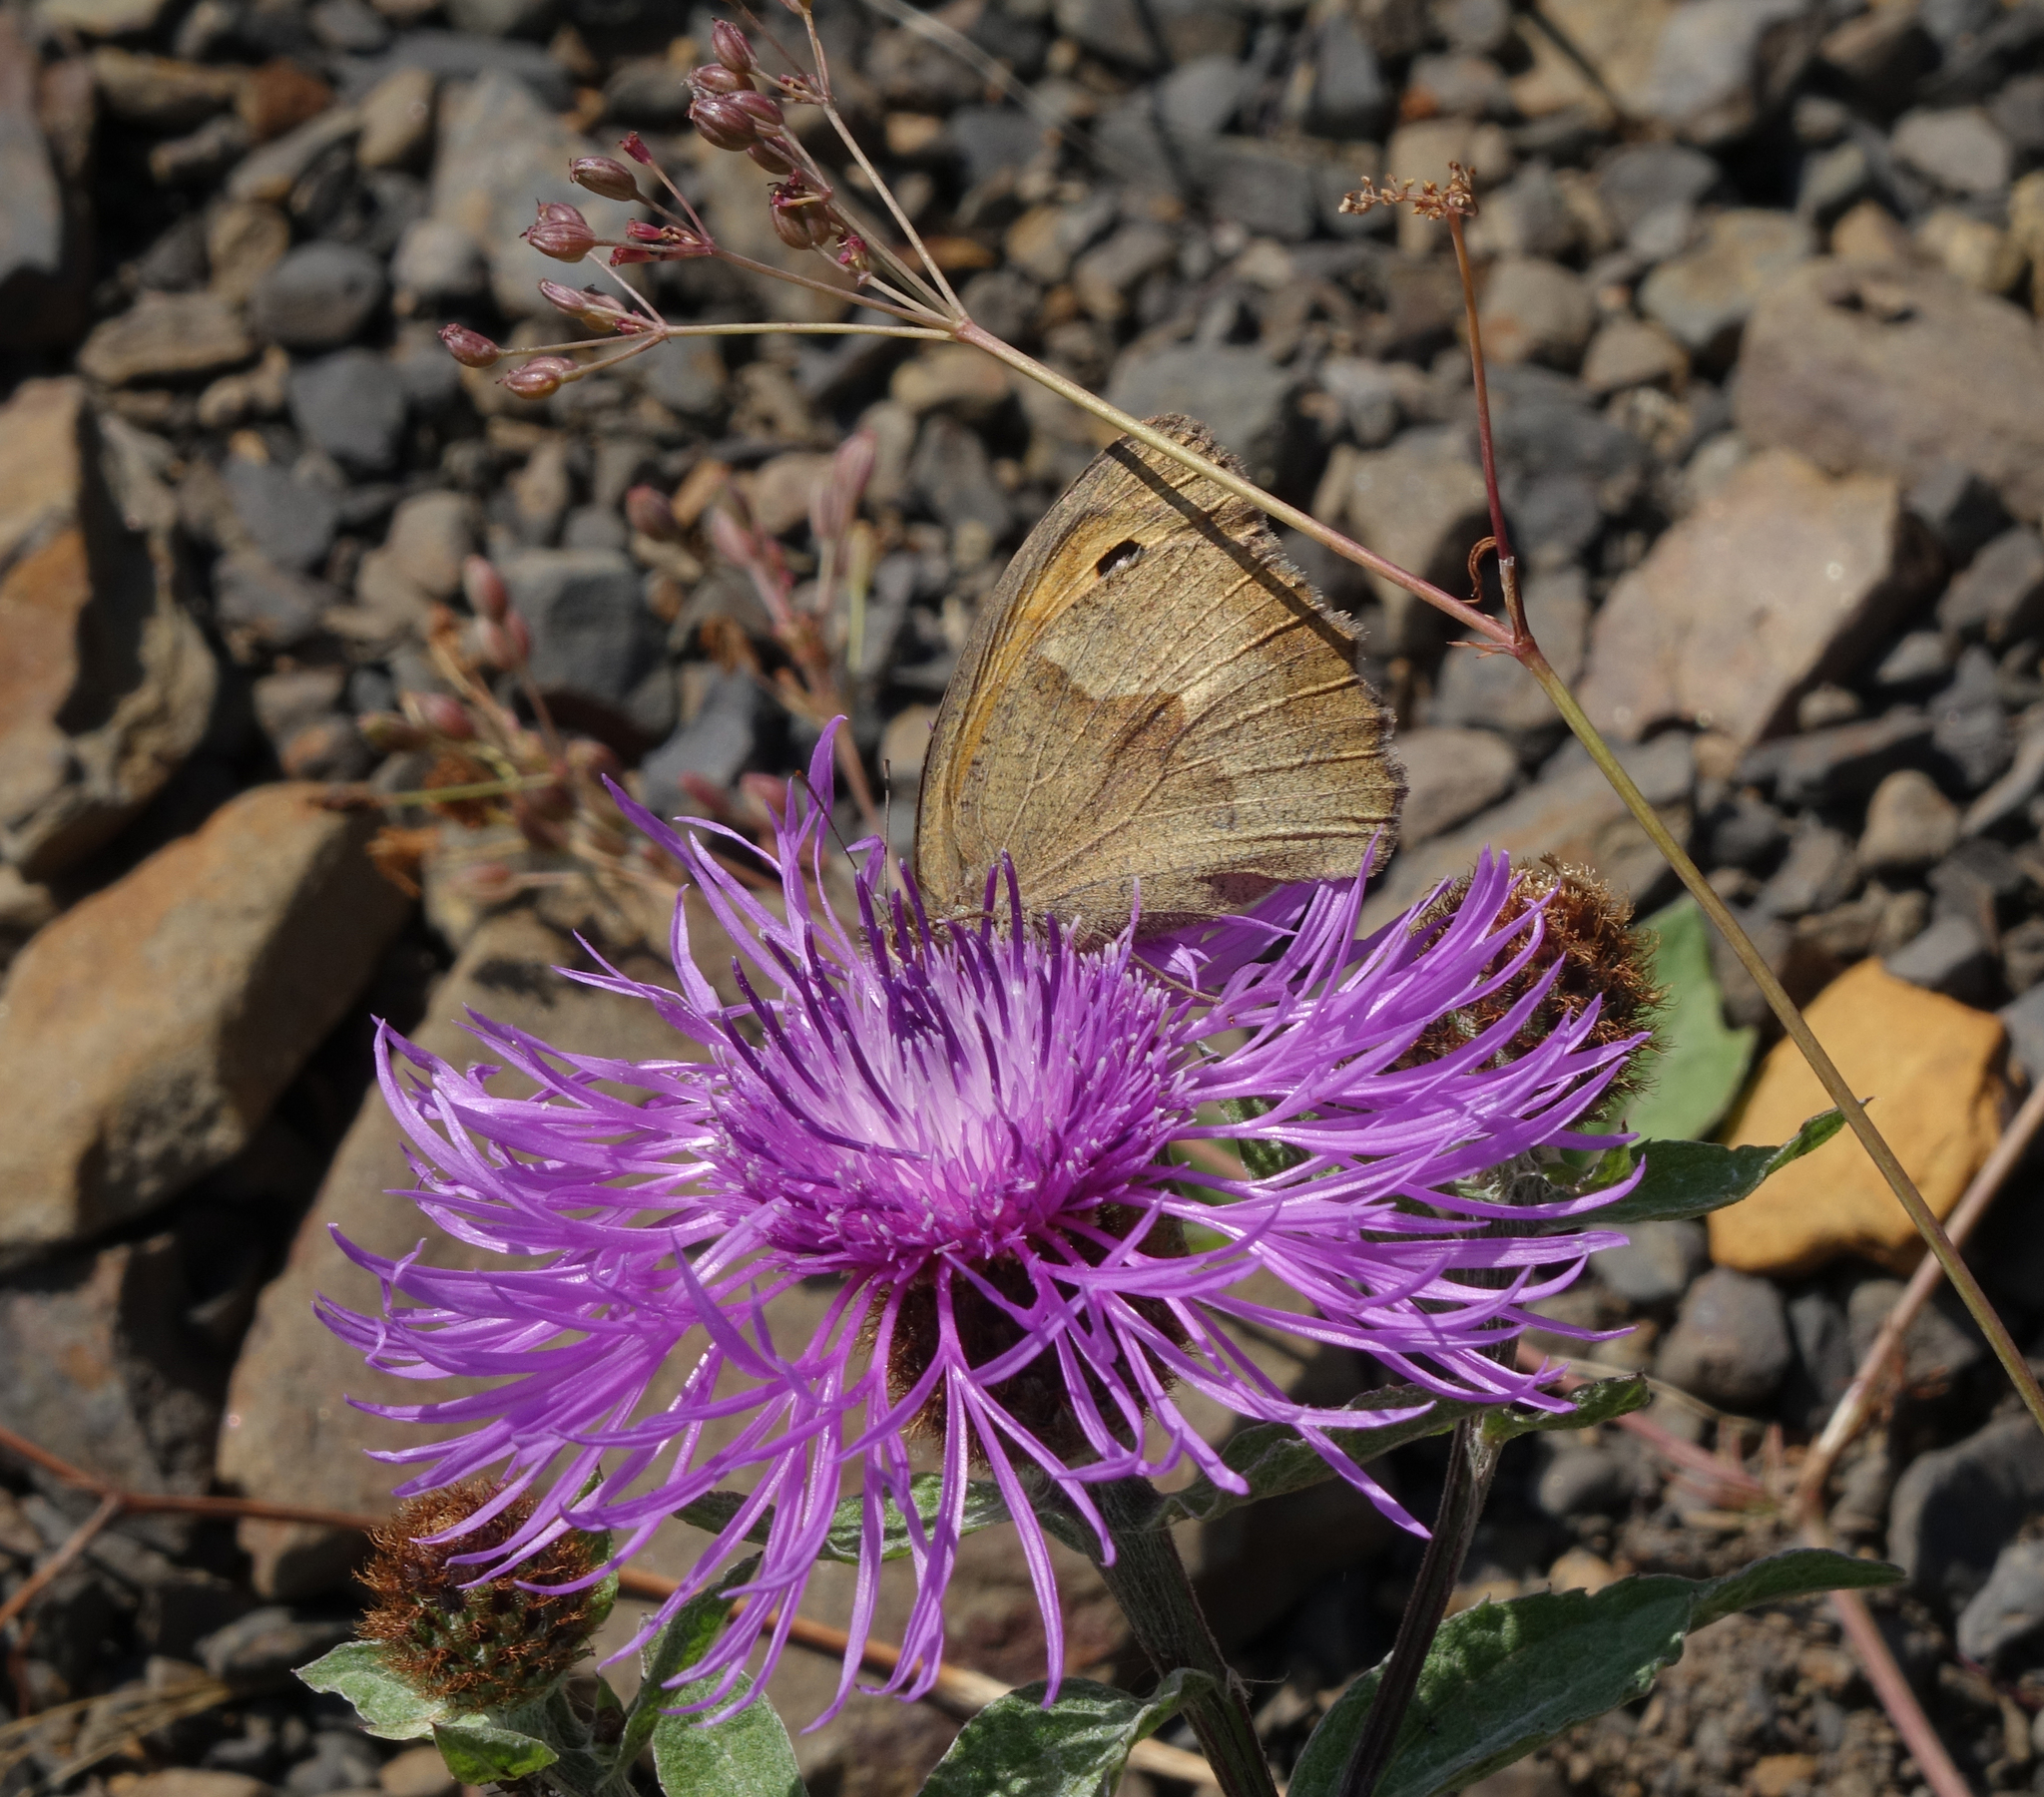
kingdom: Plantae
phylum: Tracheophyta
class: Magnoliopsida
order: Asterales
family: Asteraceae
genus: Centaurea
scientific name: Centaurea phrygia
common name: Wig knapweed
